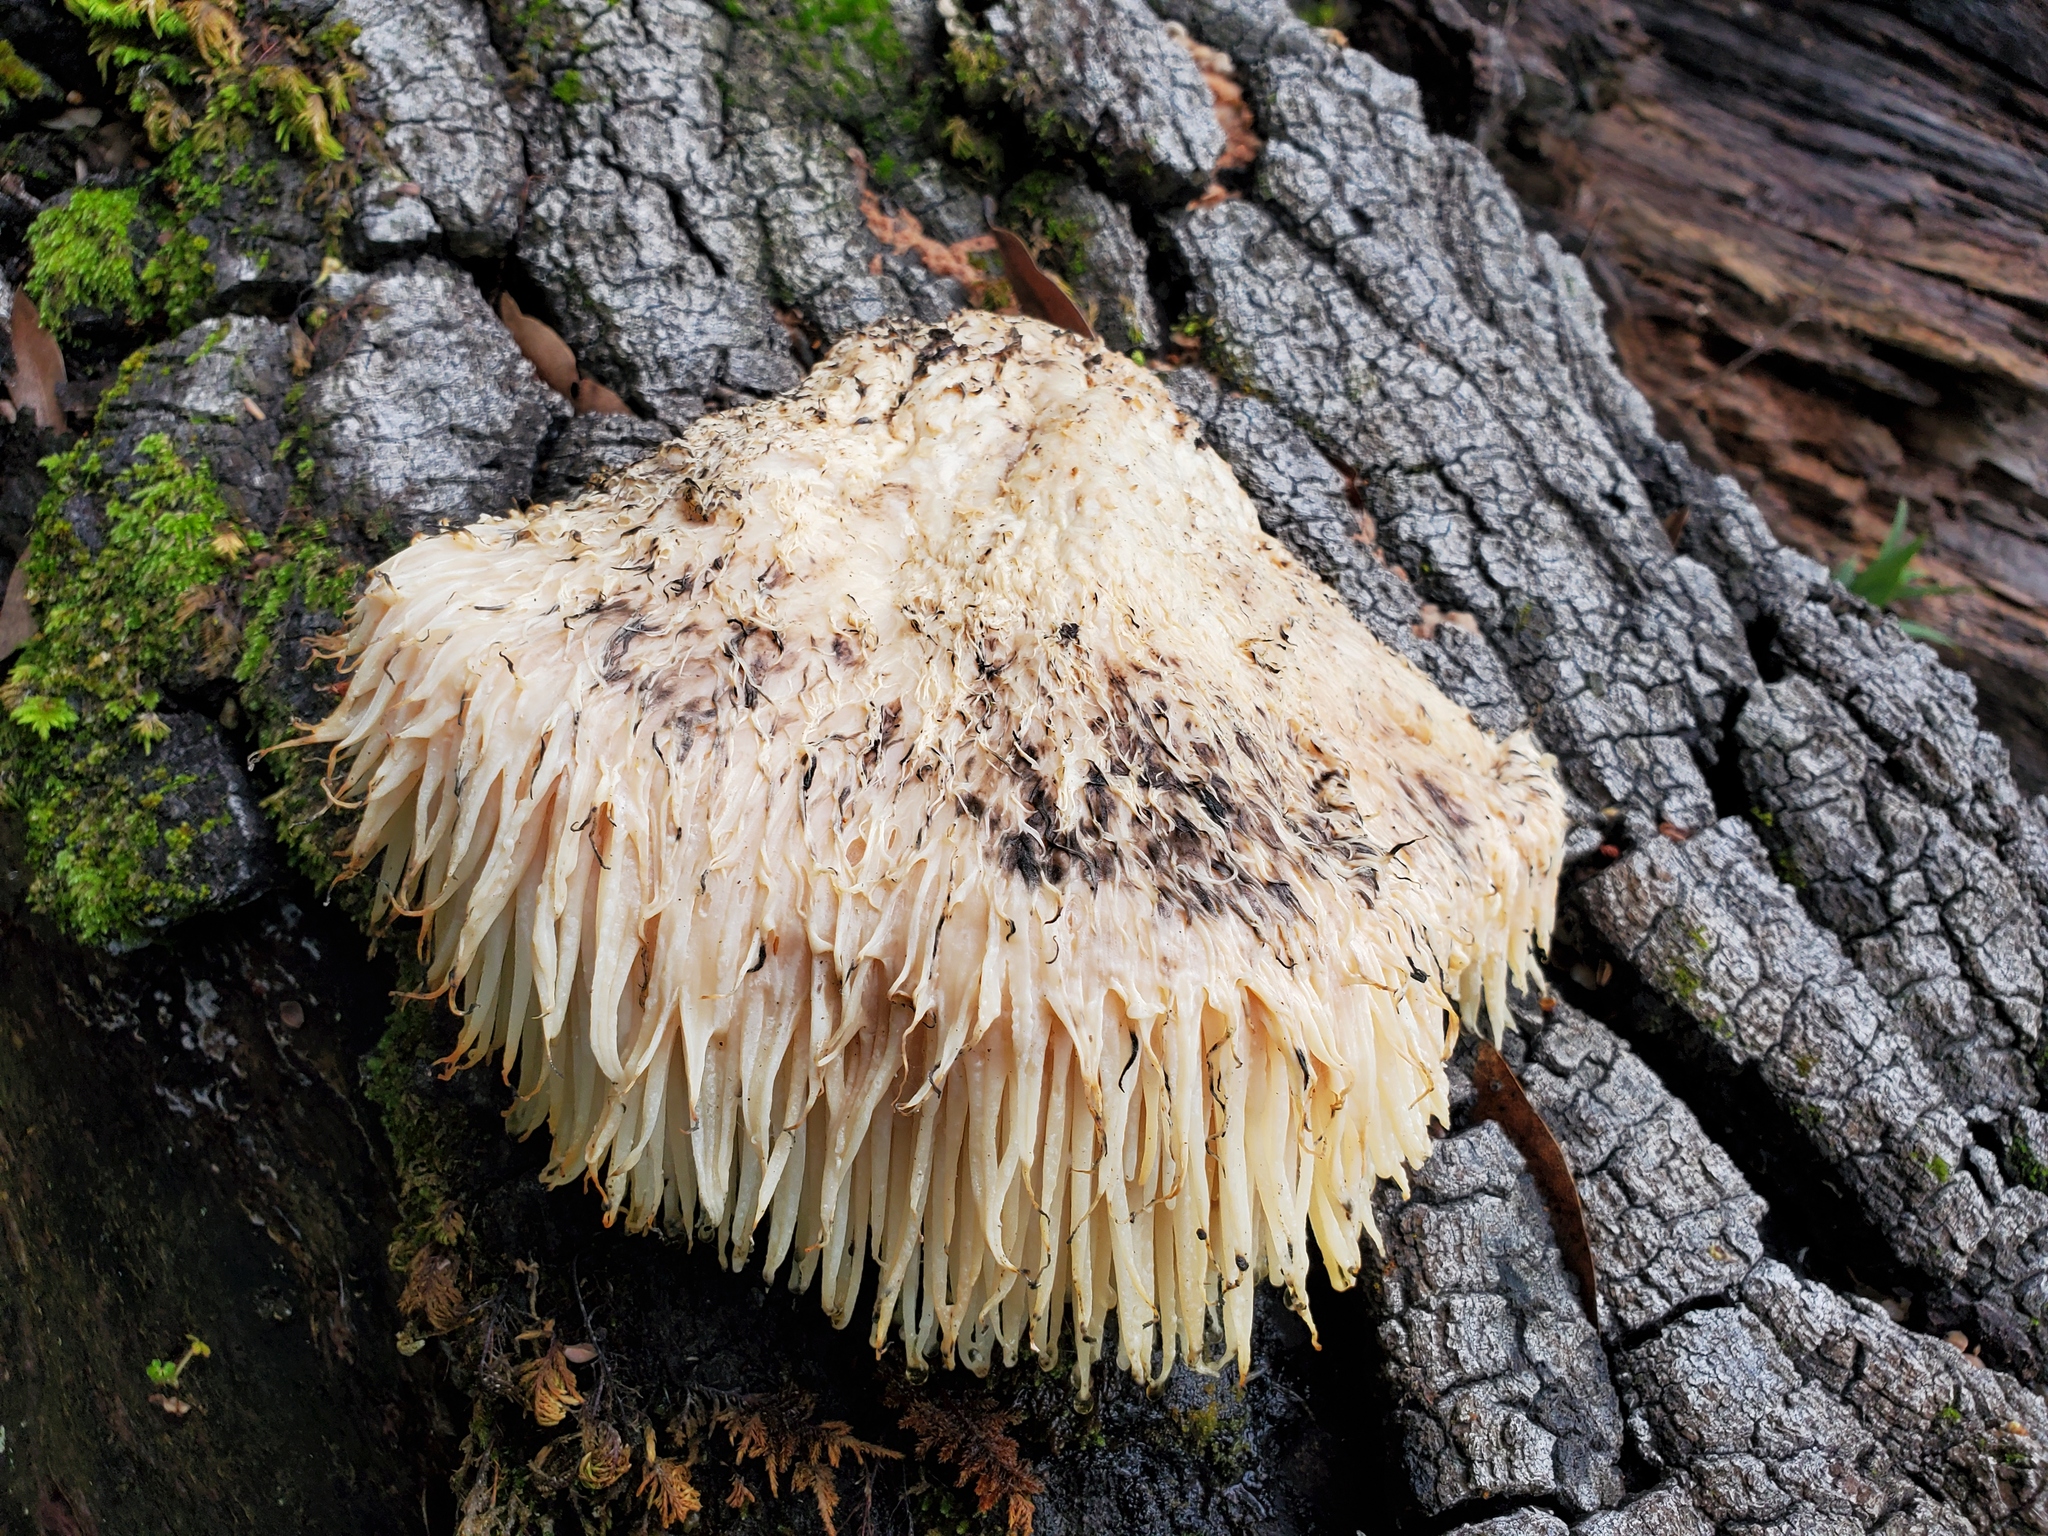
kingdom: Fungi
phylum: Basidiomycota
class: Agaricomycetes
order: Russulales
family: Hericiaceae
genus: Hericium
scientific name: Hericium erinaceus
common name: Bearded tooth
